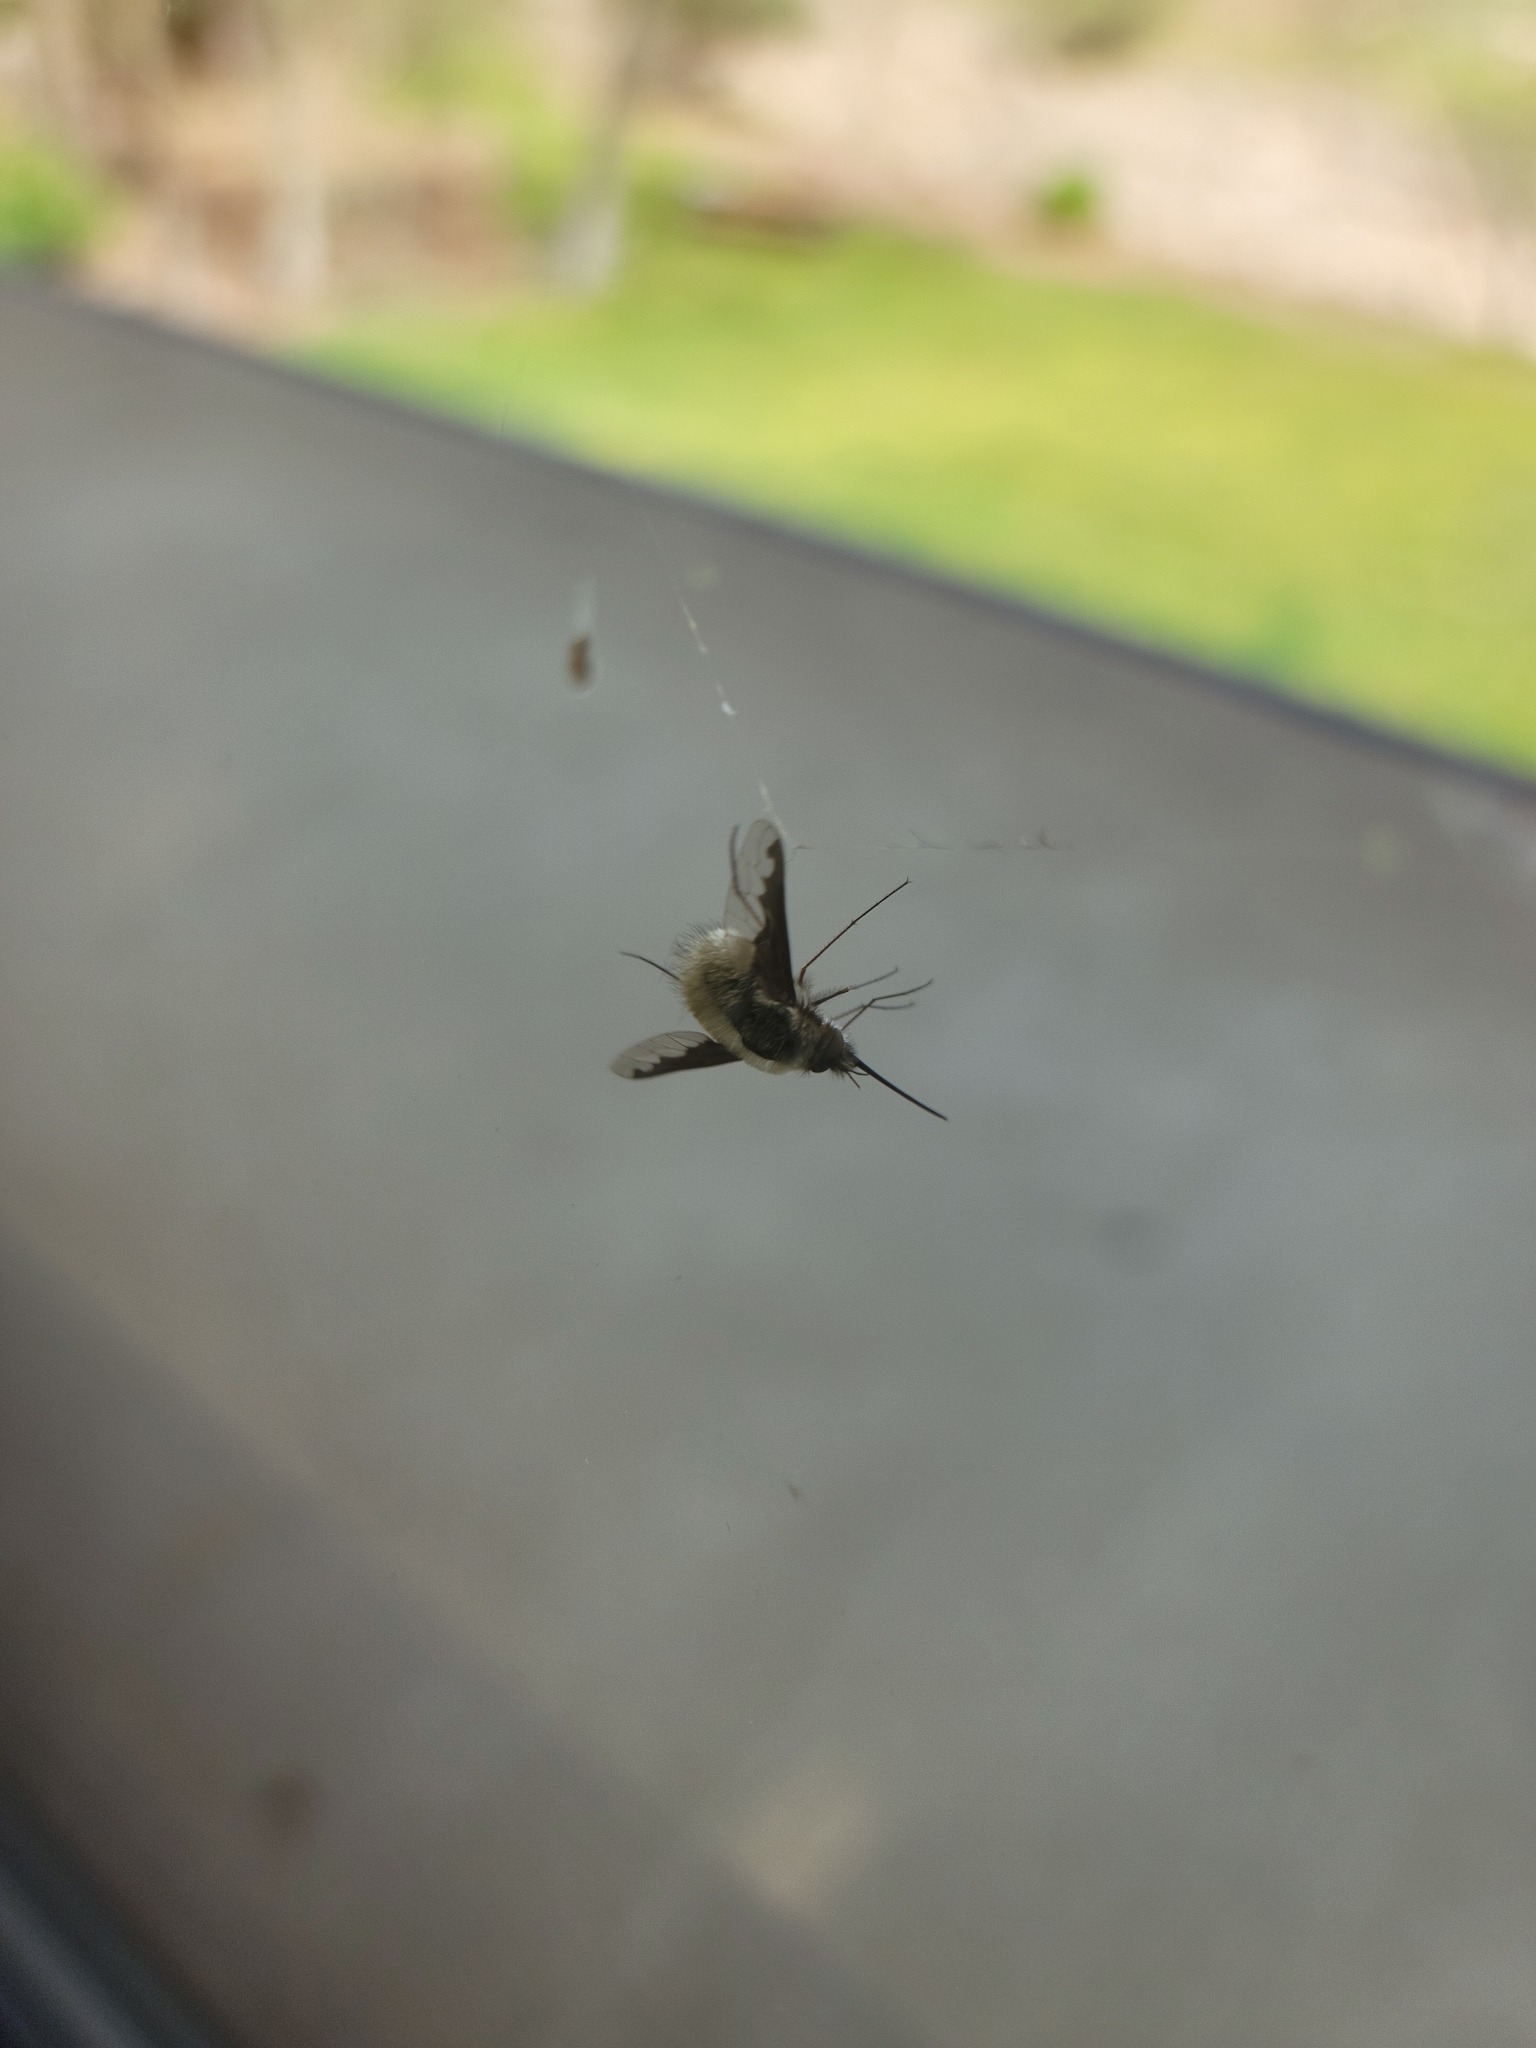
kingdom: Animalia
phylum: Arthropoda
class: Insecta
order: Diptera
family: Bombyliidae
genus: Bombylius
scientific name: Bombylius major
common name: Bee fly
